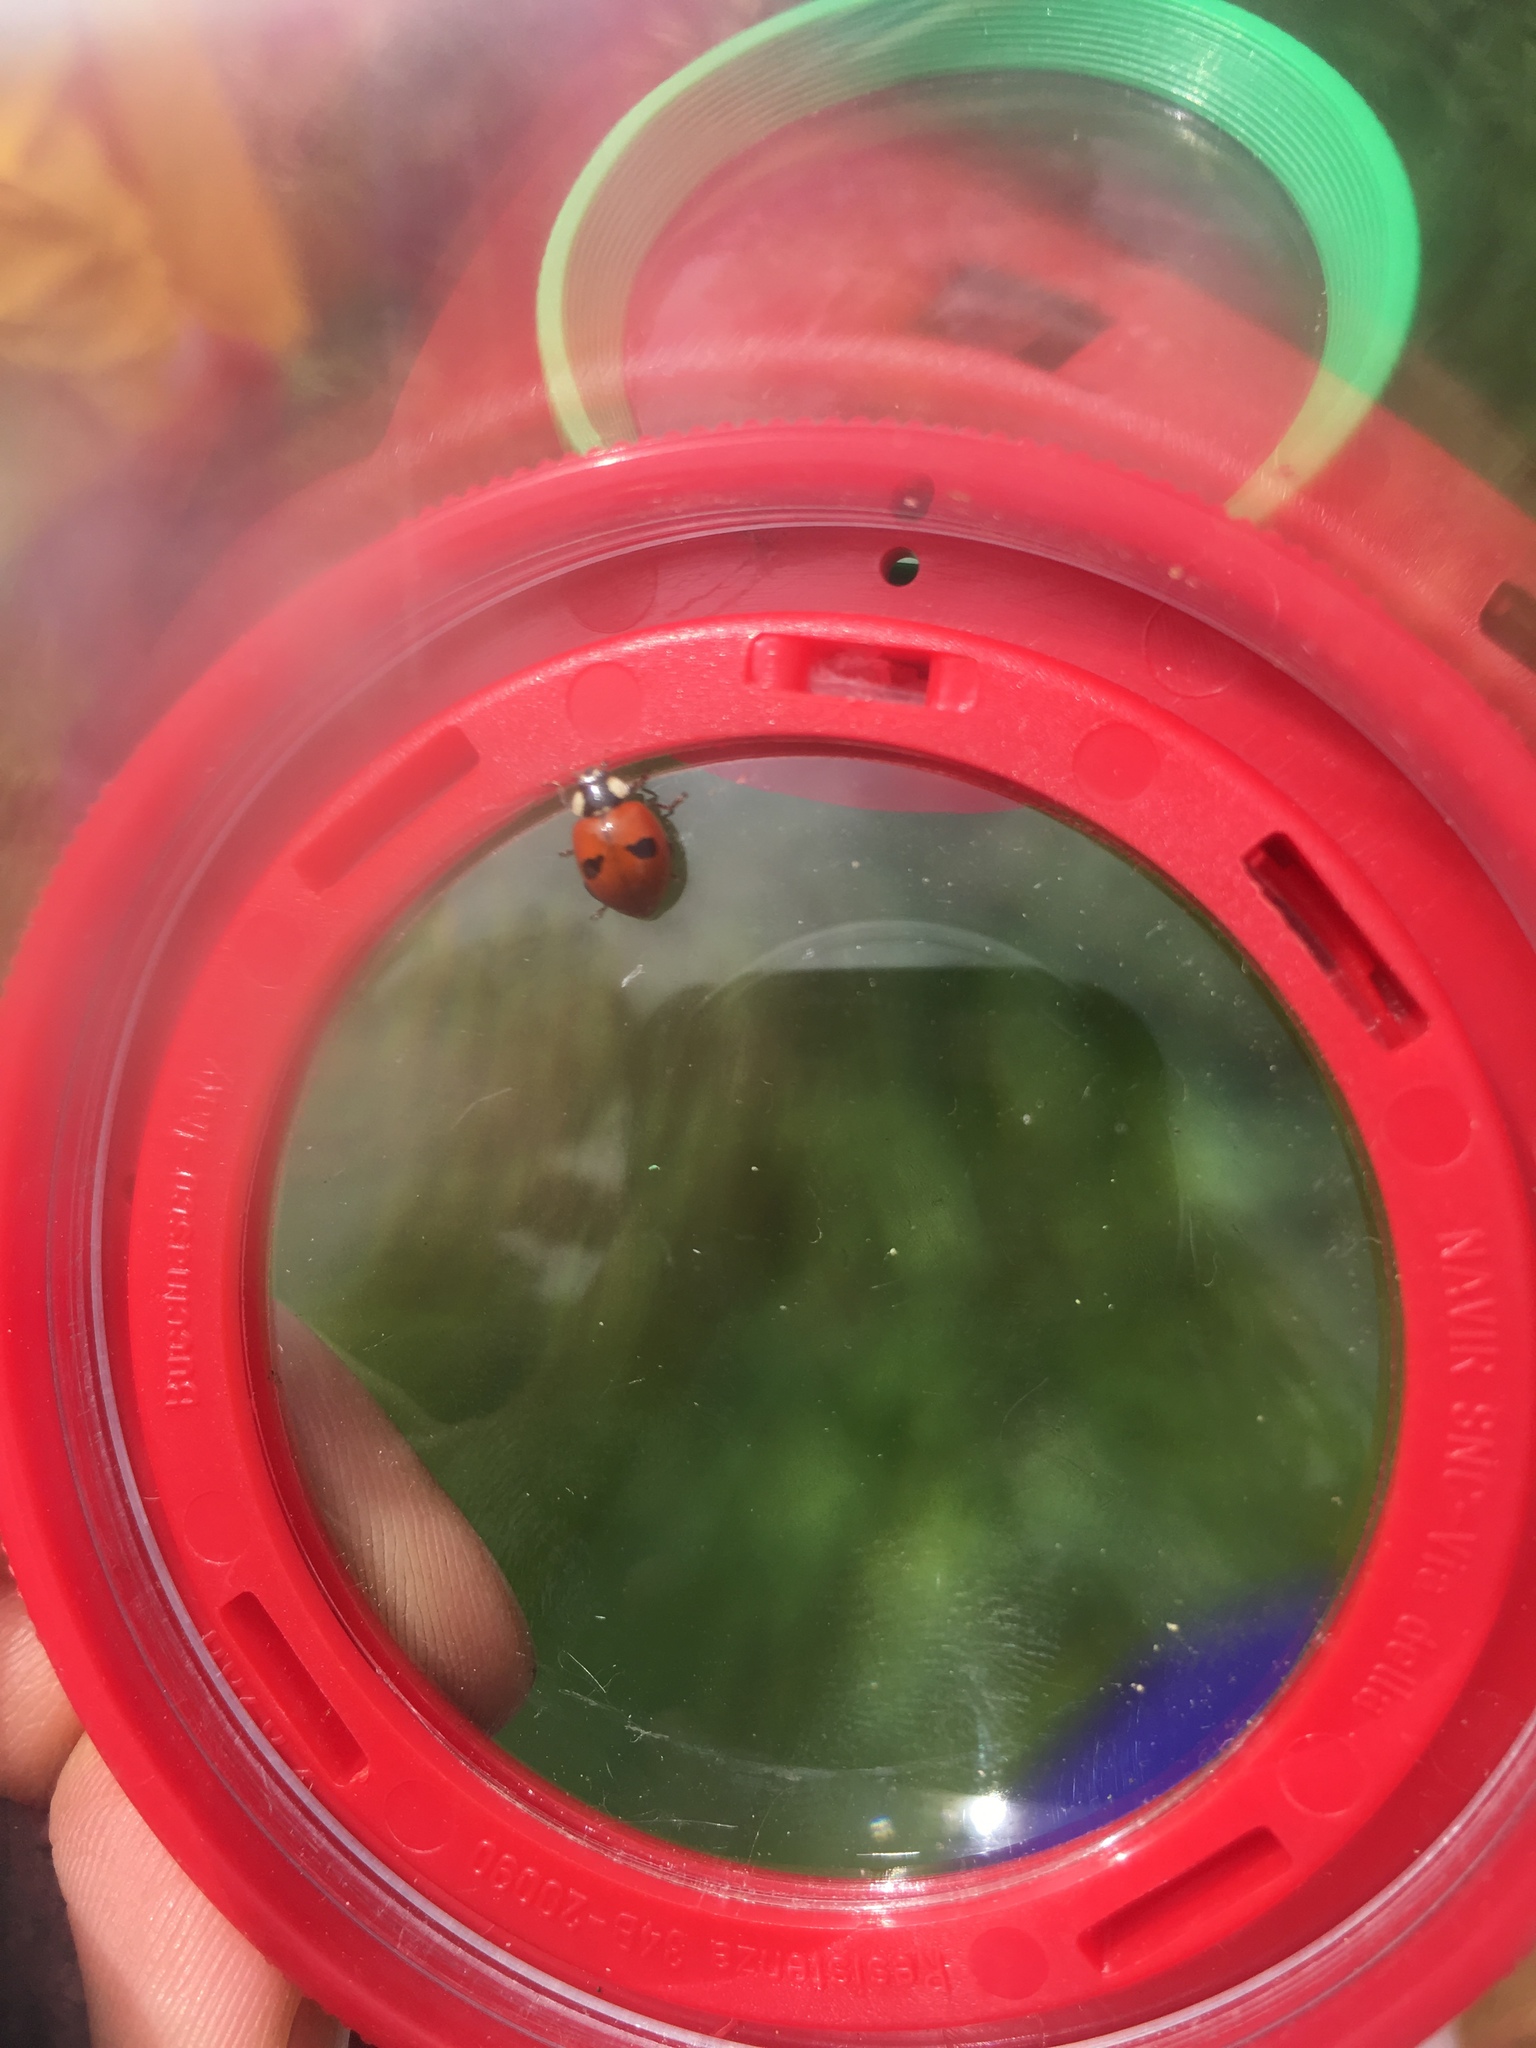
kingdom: Animalia
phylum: Arthropoda
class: Insecta
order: Coleoptera
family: Coccinellidae
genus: Adalia
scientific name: Adalia bipunctata
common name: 2-spot ladybird
